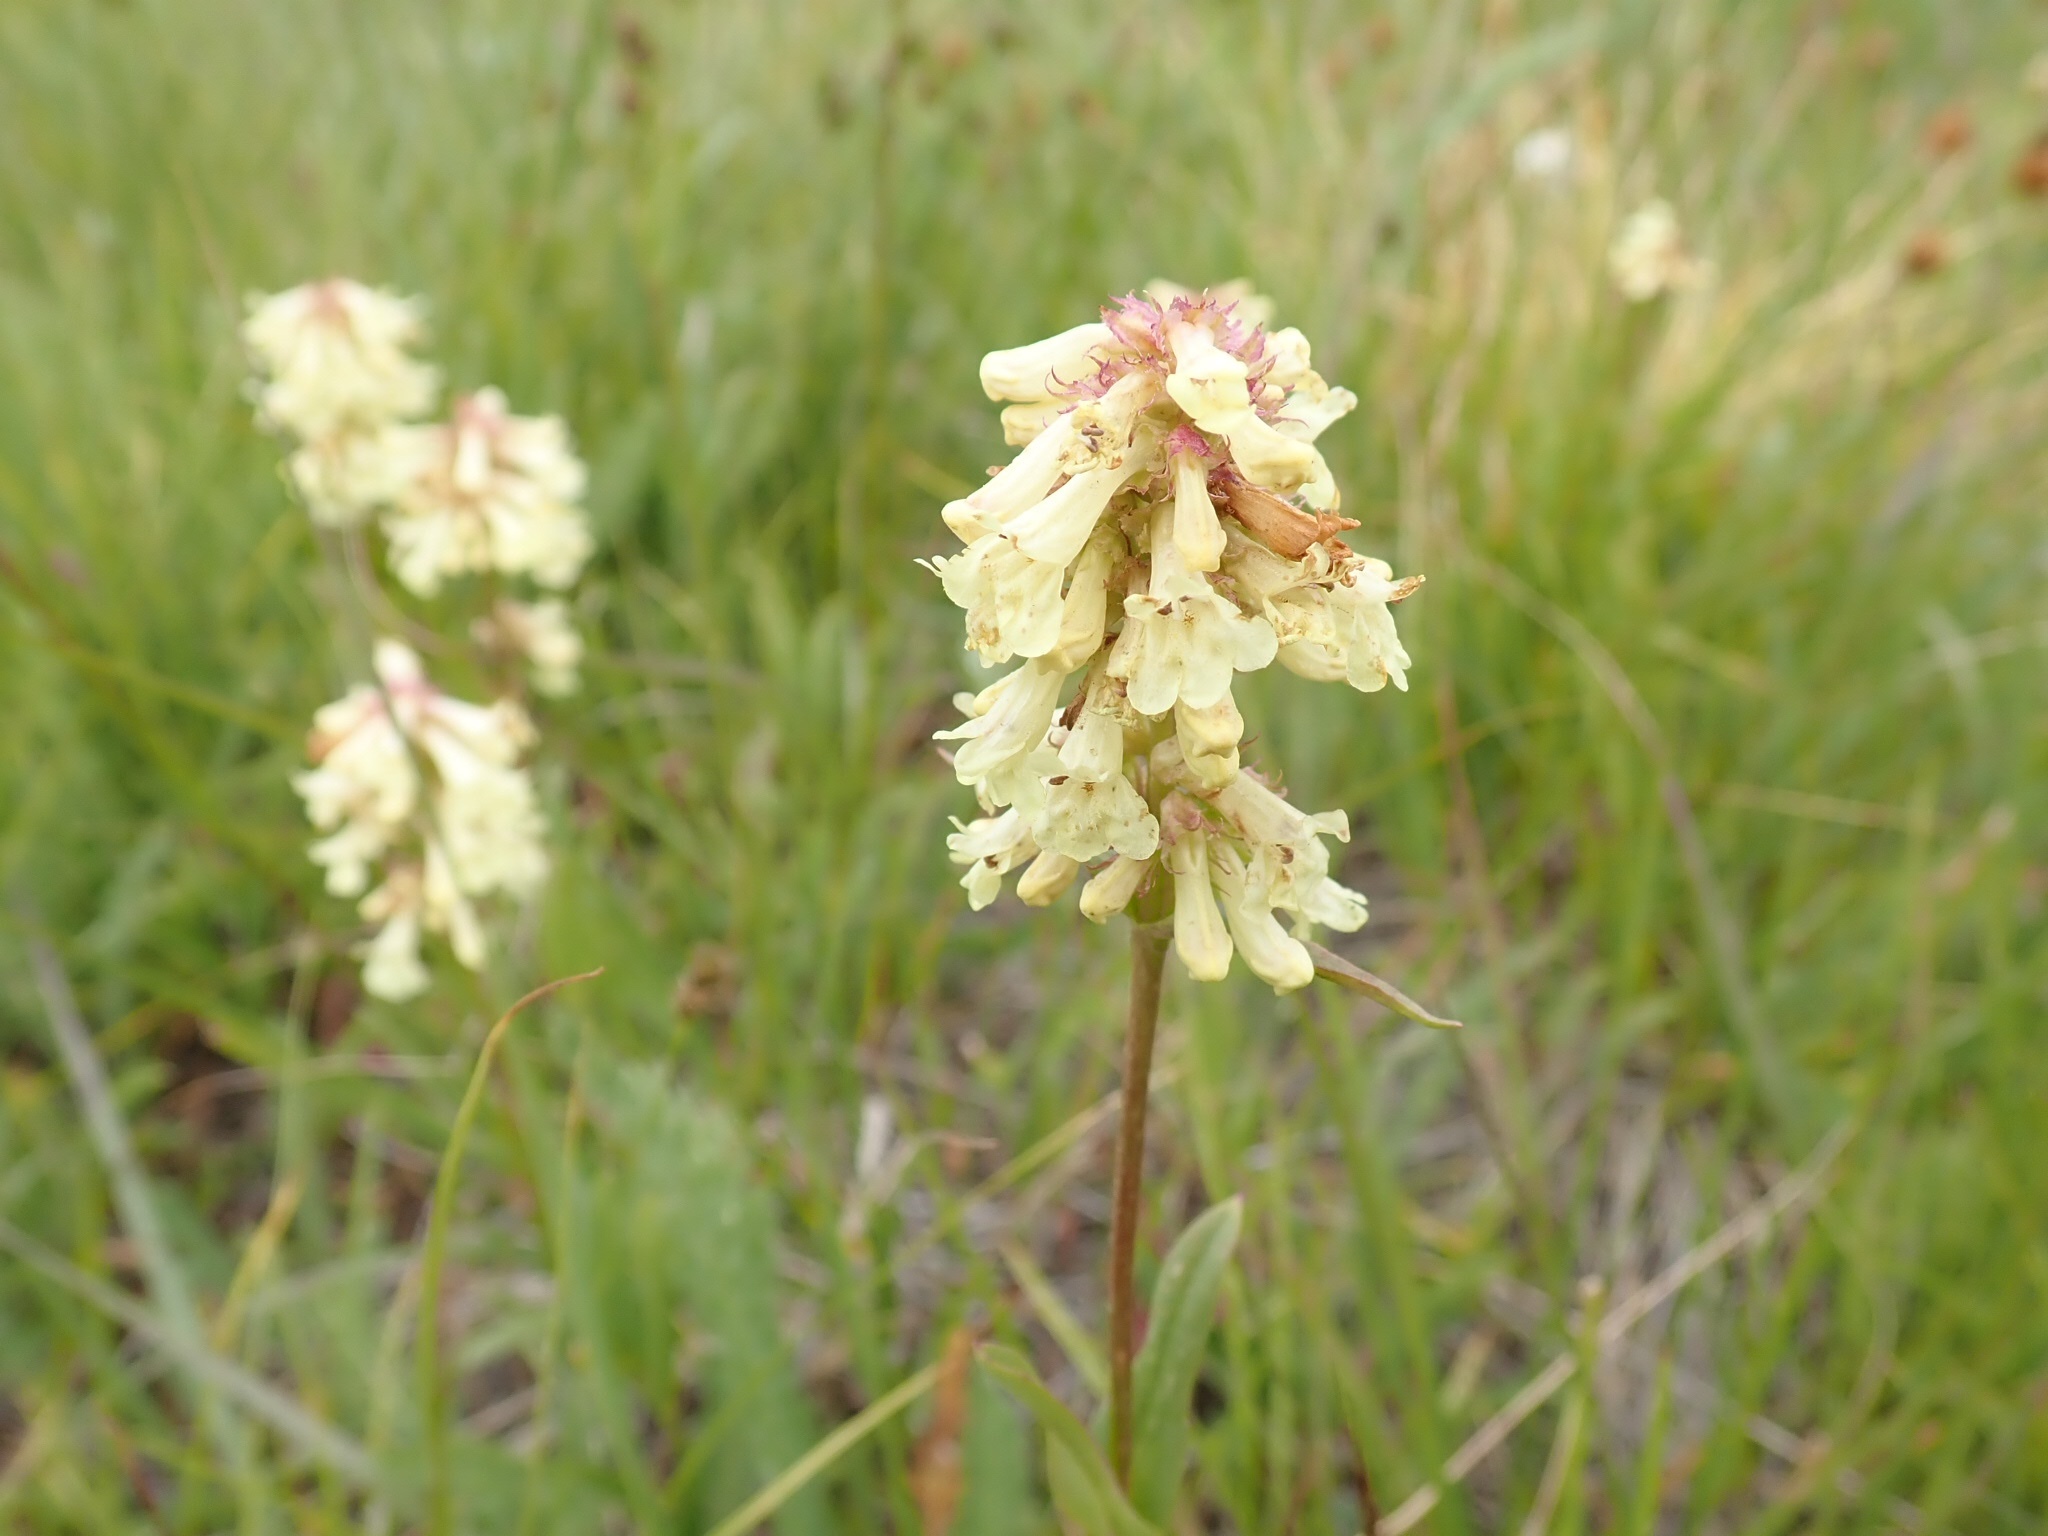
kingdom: Plantae
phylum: Tracheophyta
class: Magnoliopsida
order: Lamiales
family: Plantaginaceae
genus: Penstemon
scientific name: Penstemon confertus
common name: Lesser yellow beardtongue
